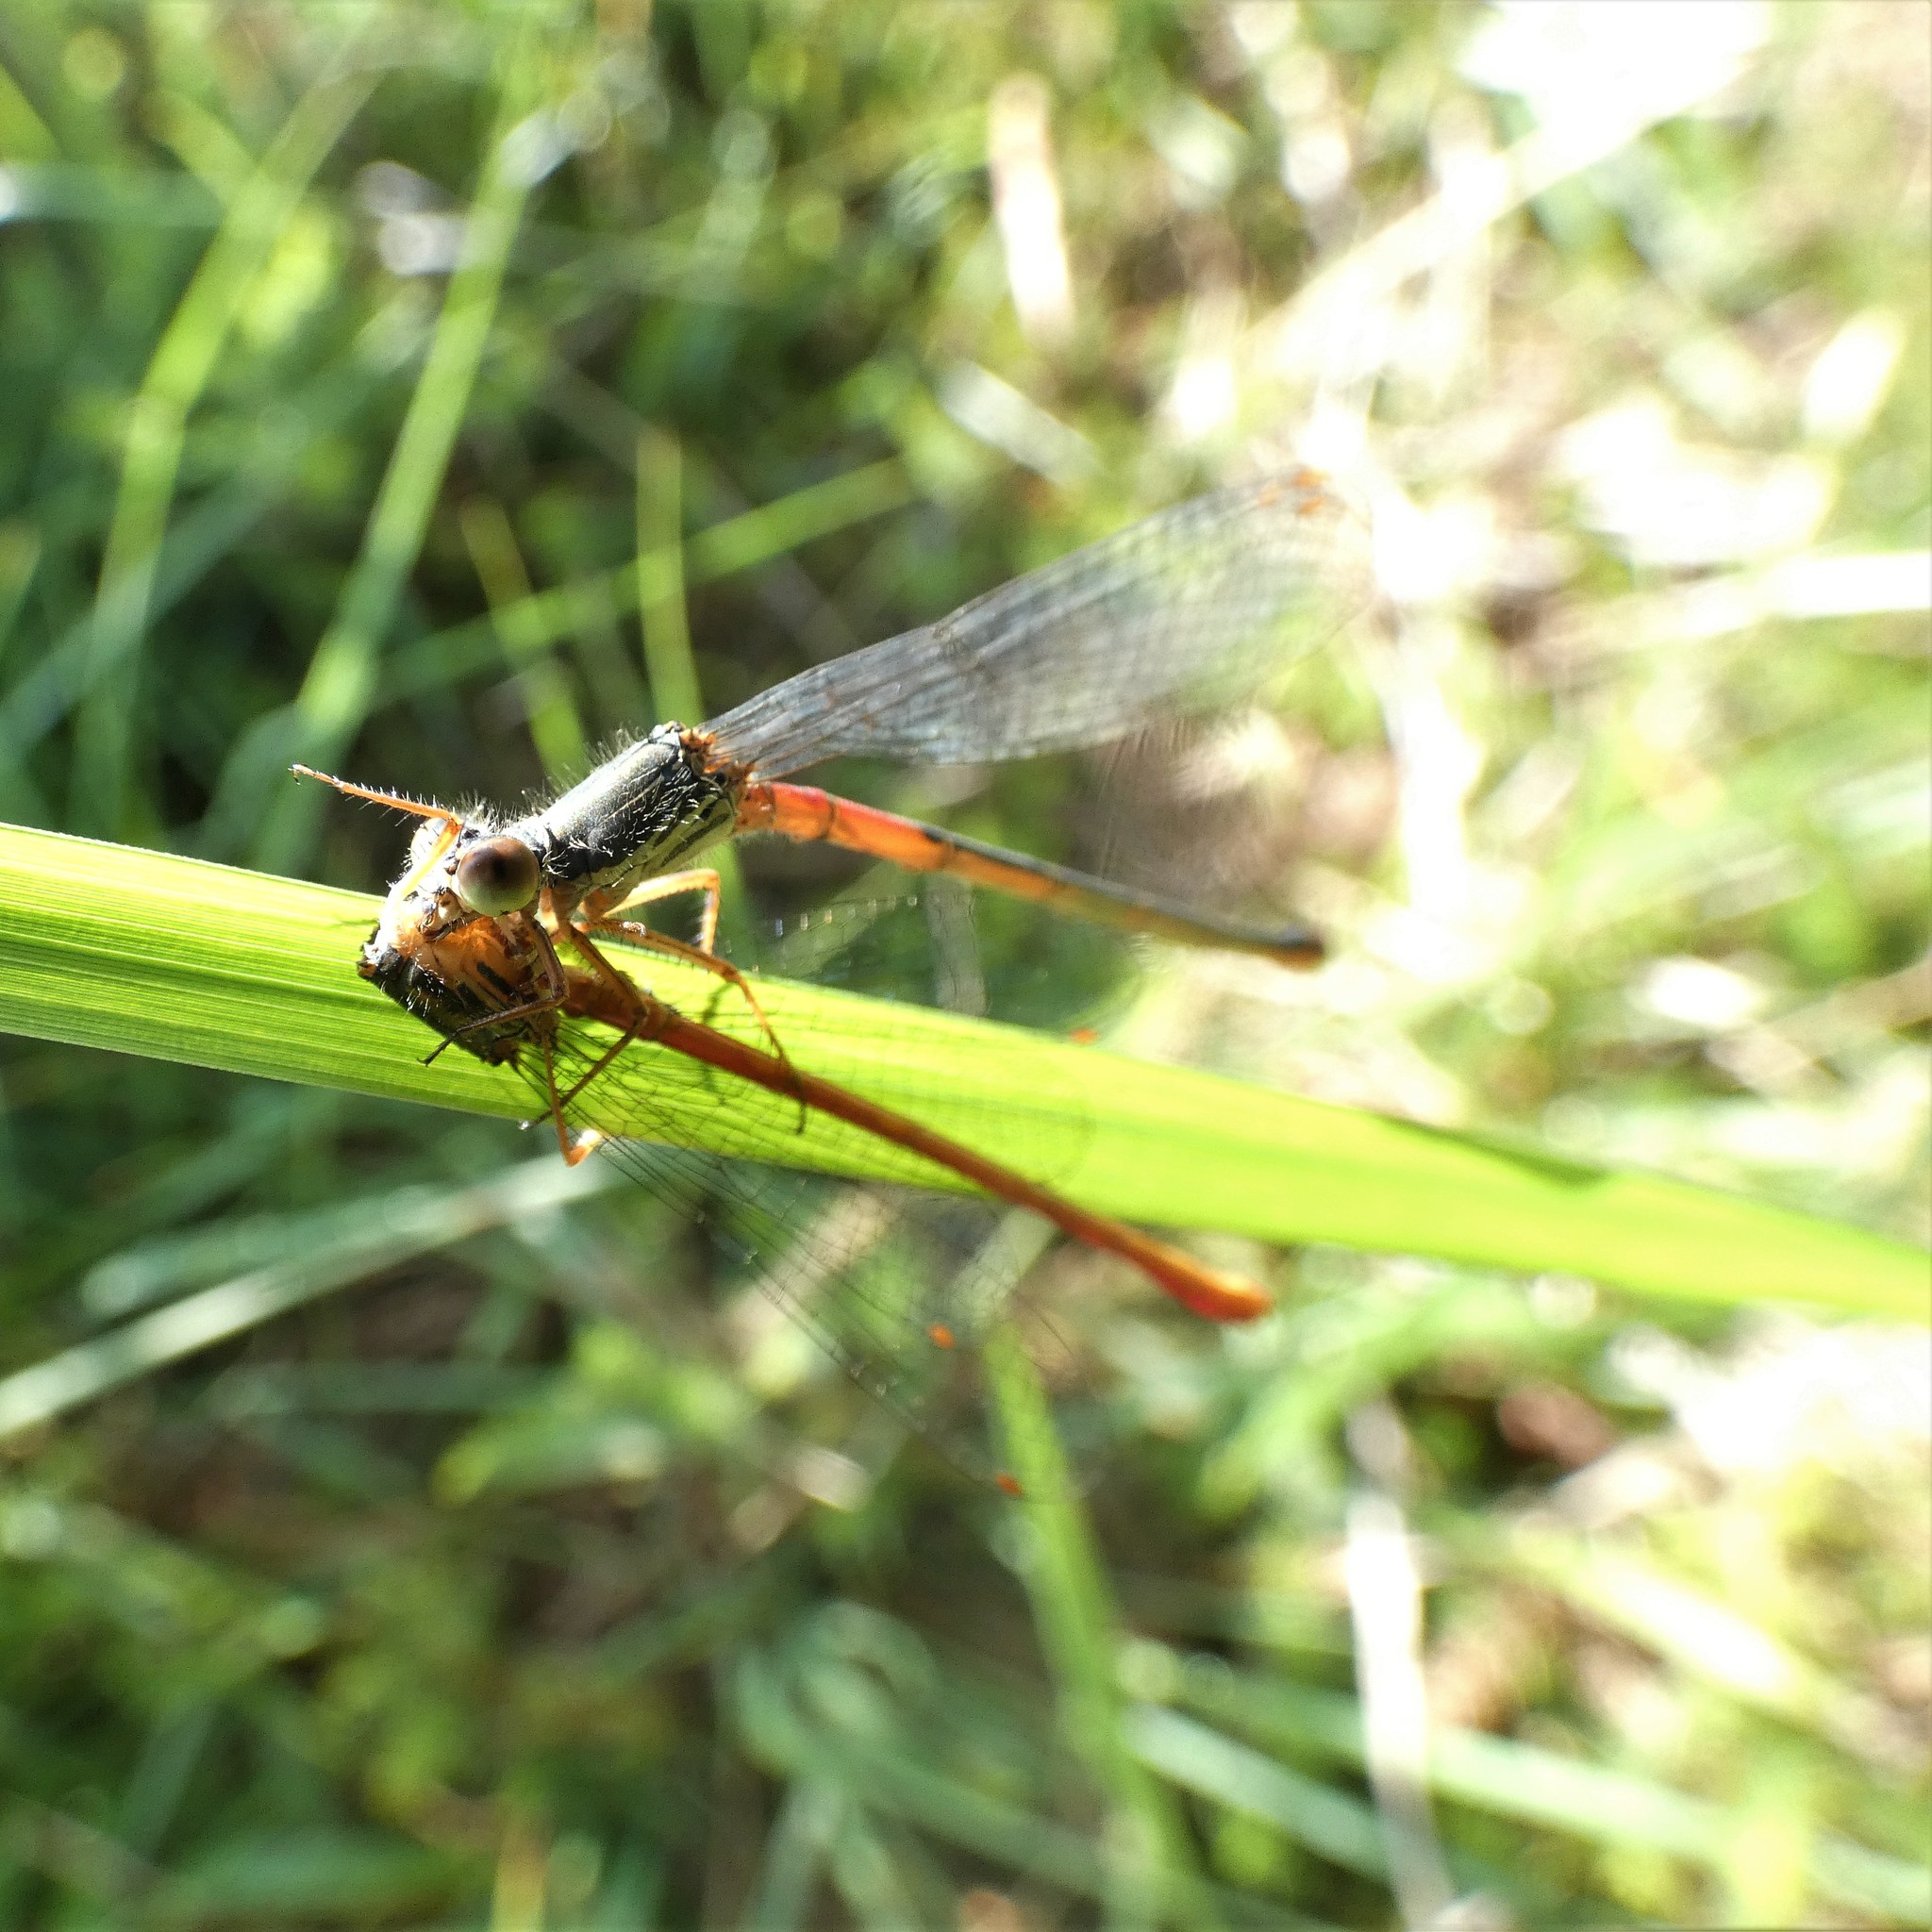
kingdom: Animalia
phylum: Arthropoda
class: Insecta
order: Odonata
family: Coenagrionidae
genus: Ceriagrion
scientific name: Ceriagrion tenellum
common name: Small red damselfly
